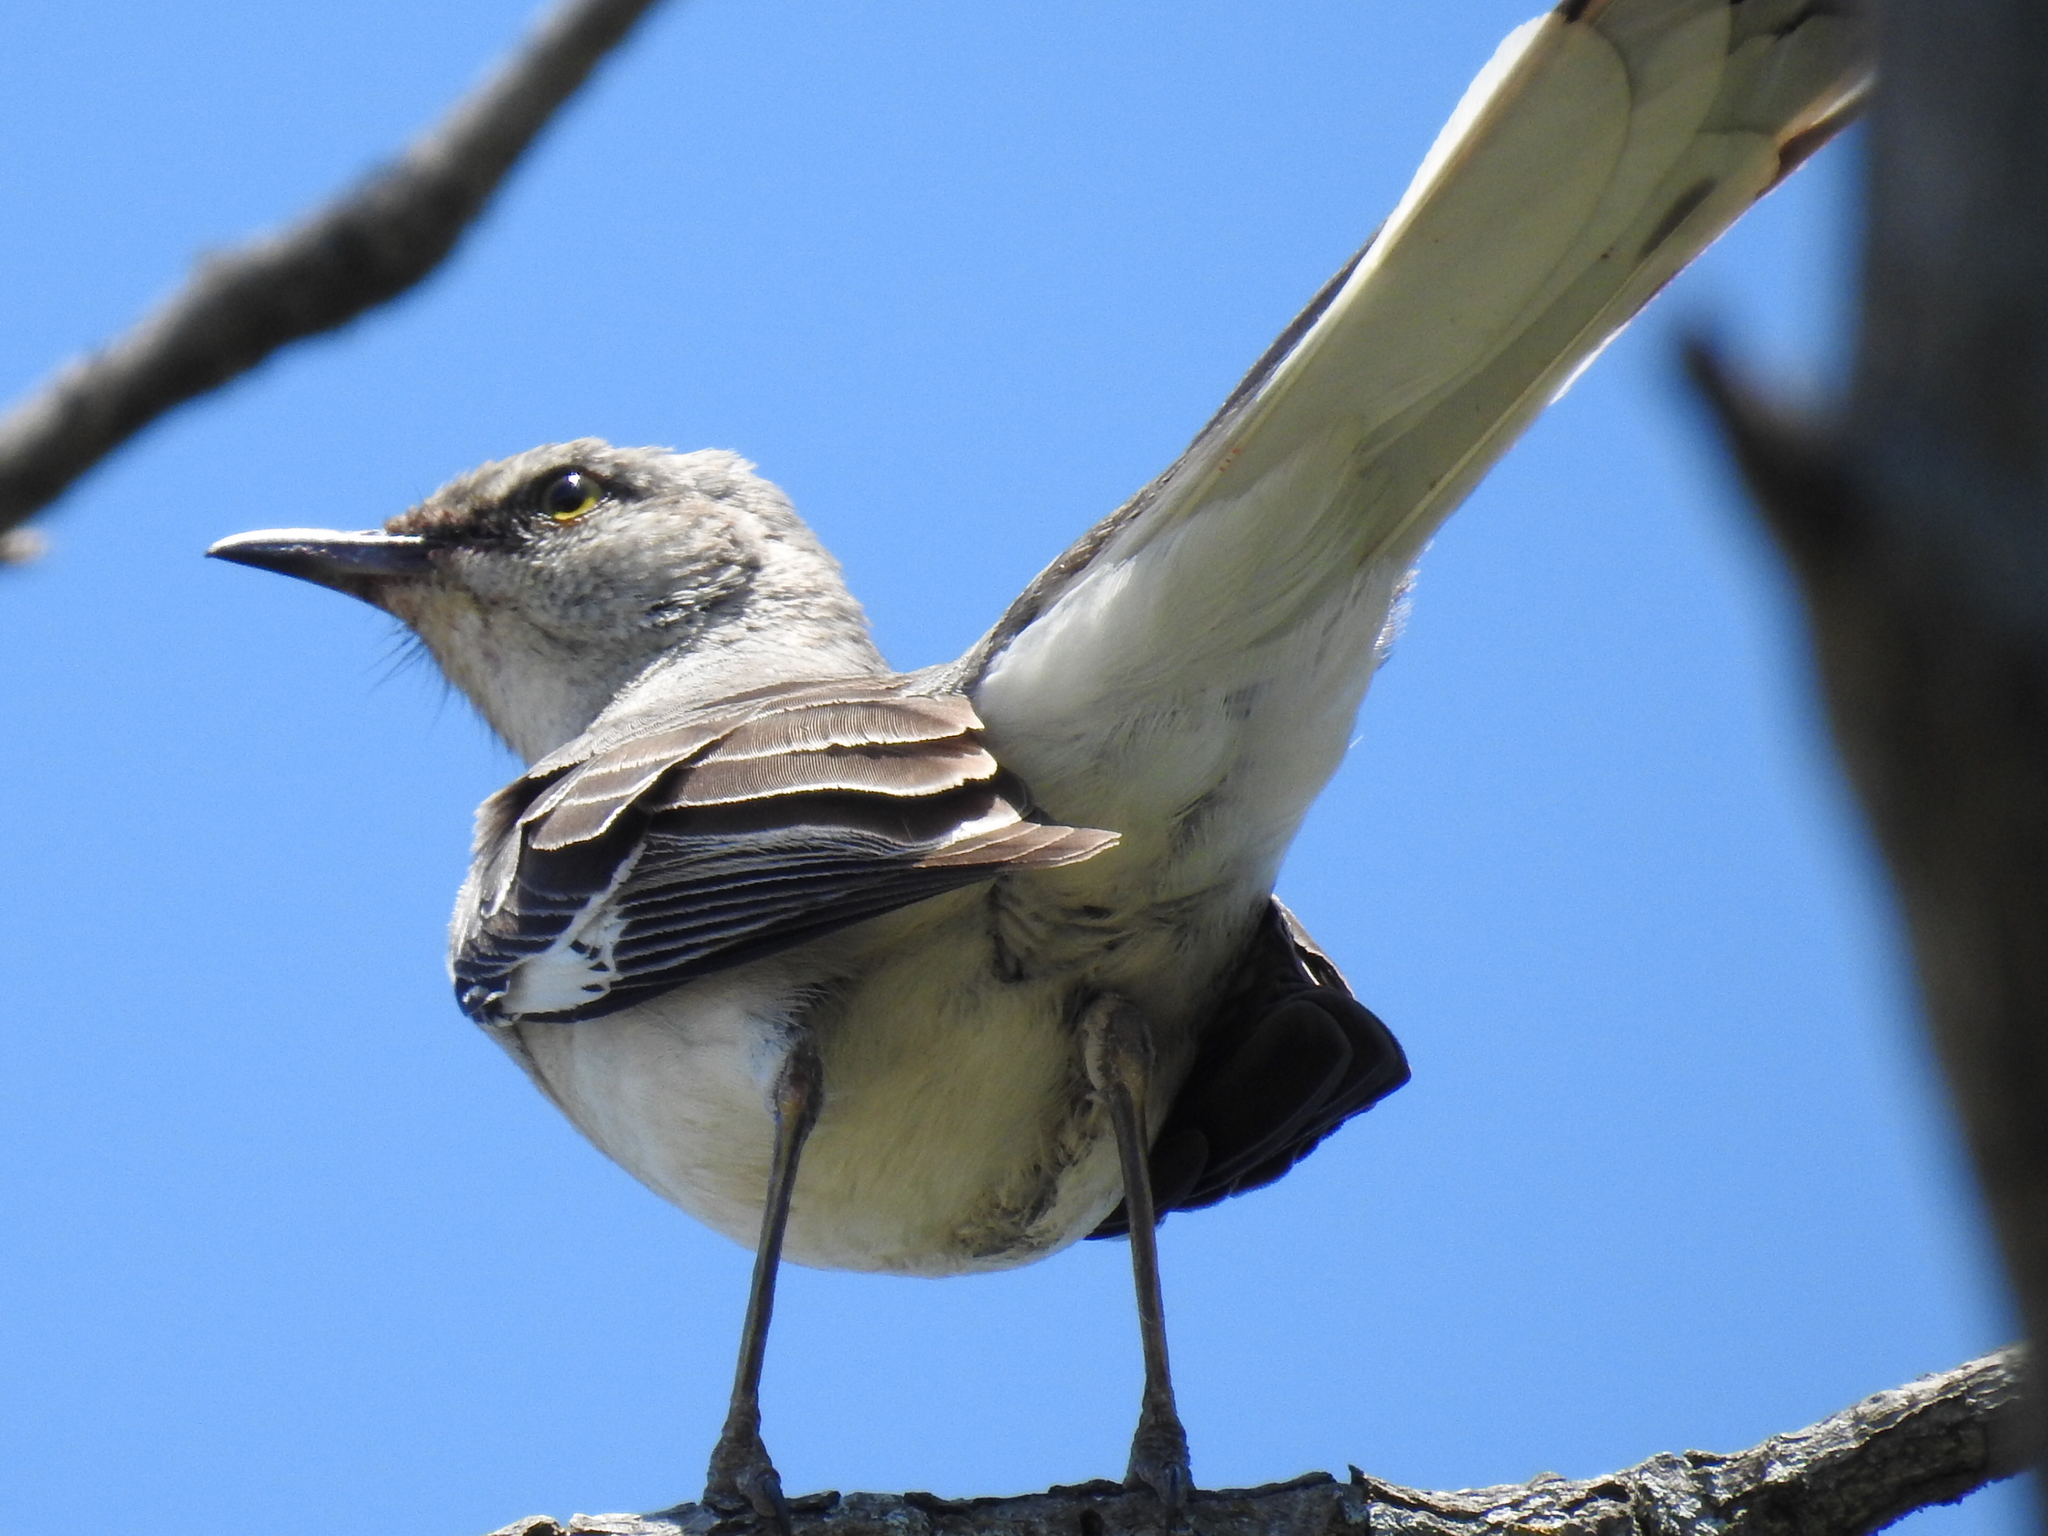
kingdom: Animalia
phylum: Chordata
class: Aves
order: Passeriformes
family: Mimidae
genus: Mimus
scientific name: Mimus polyglottos
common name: Northern mockingbird
